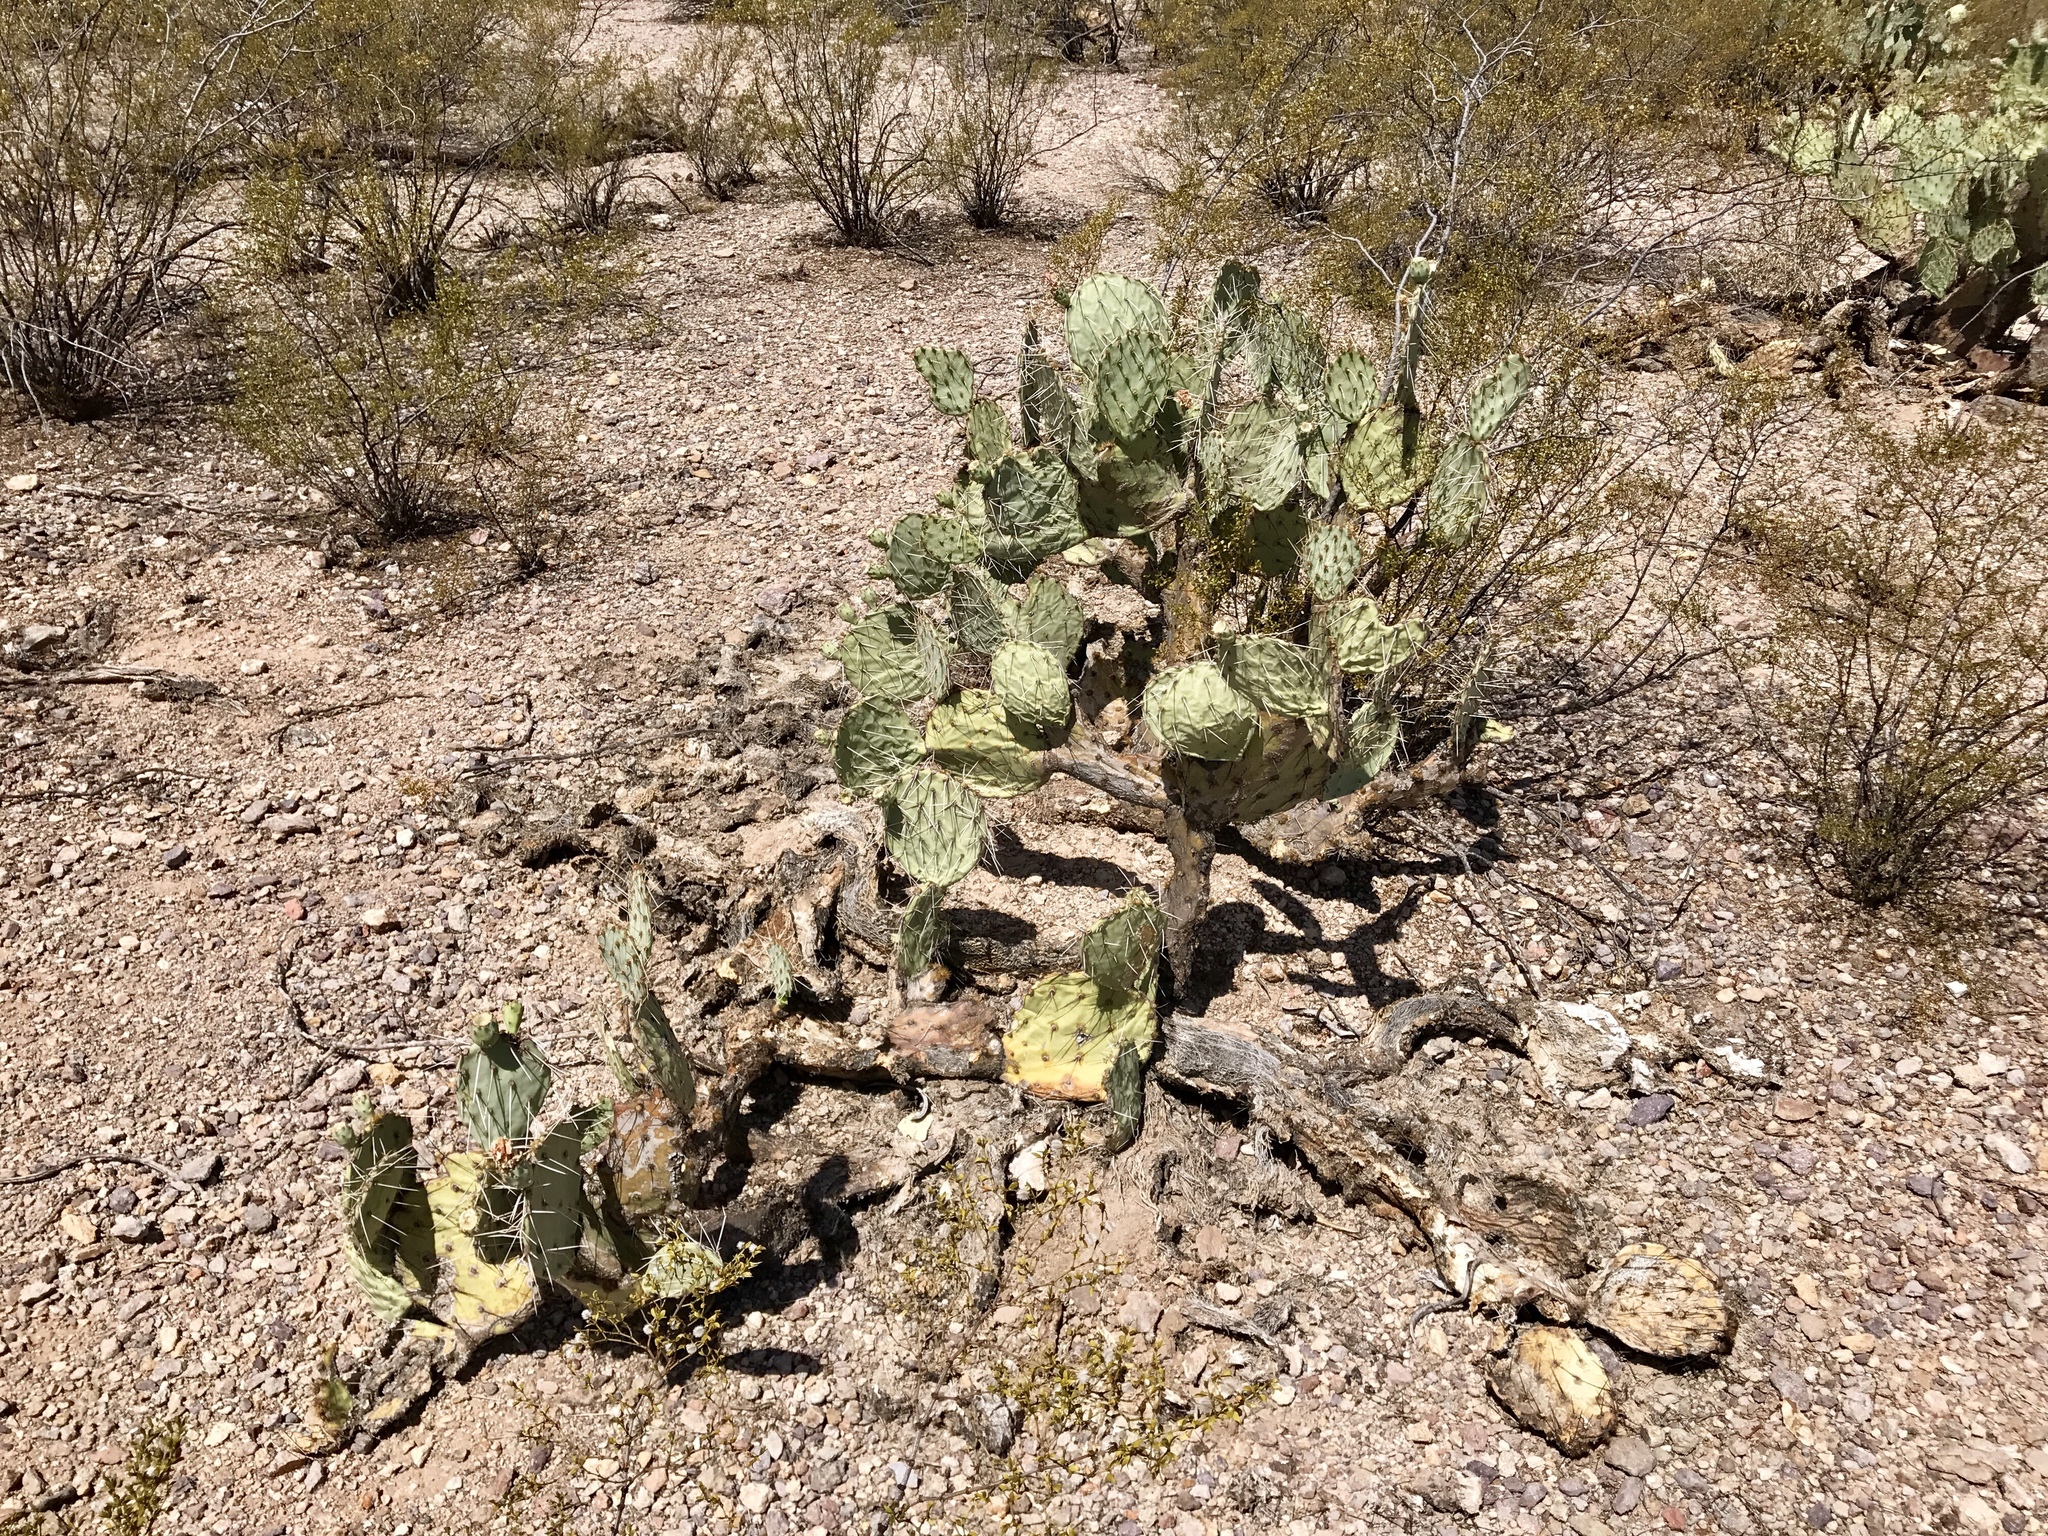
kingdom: Plantae
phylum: Tracheophyta
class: Magnoliopsida
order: Caryophyllales
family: Cactaceae
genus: Opuntia
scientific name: Opuntia engelmannii
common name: Cactus-apple
